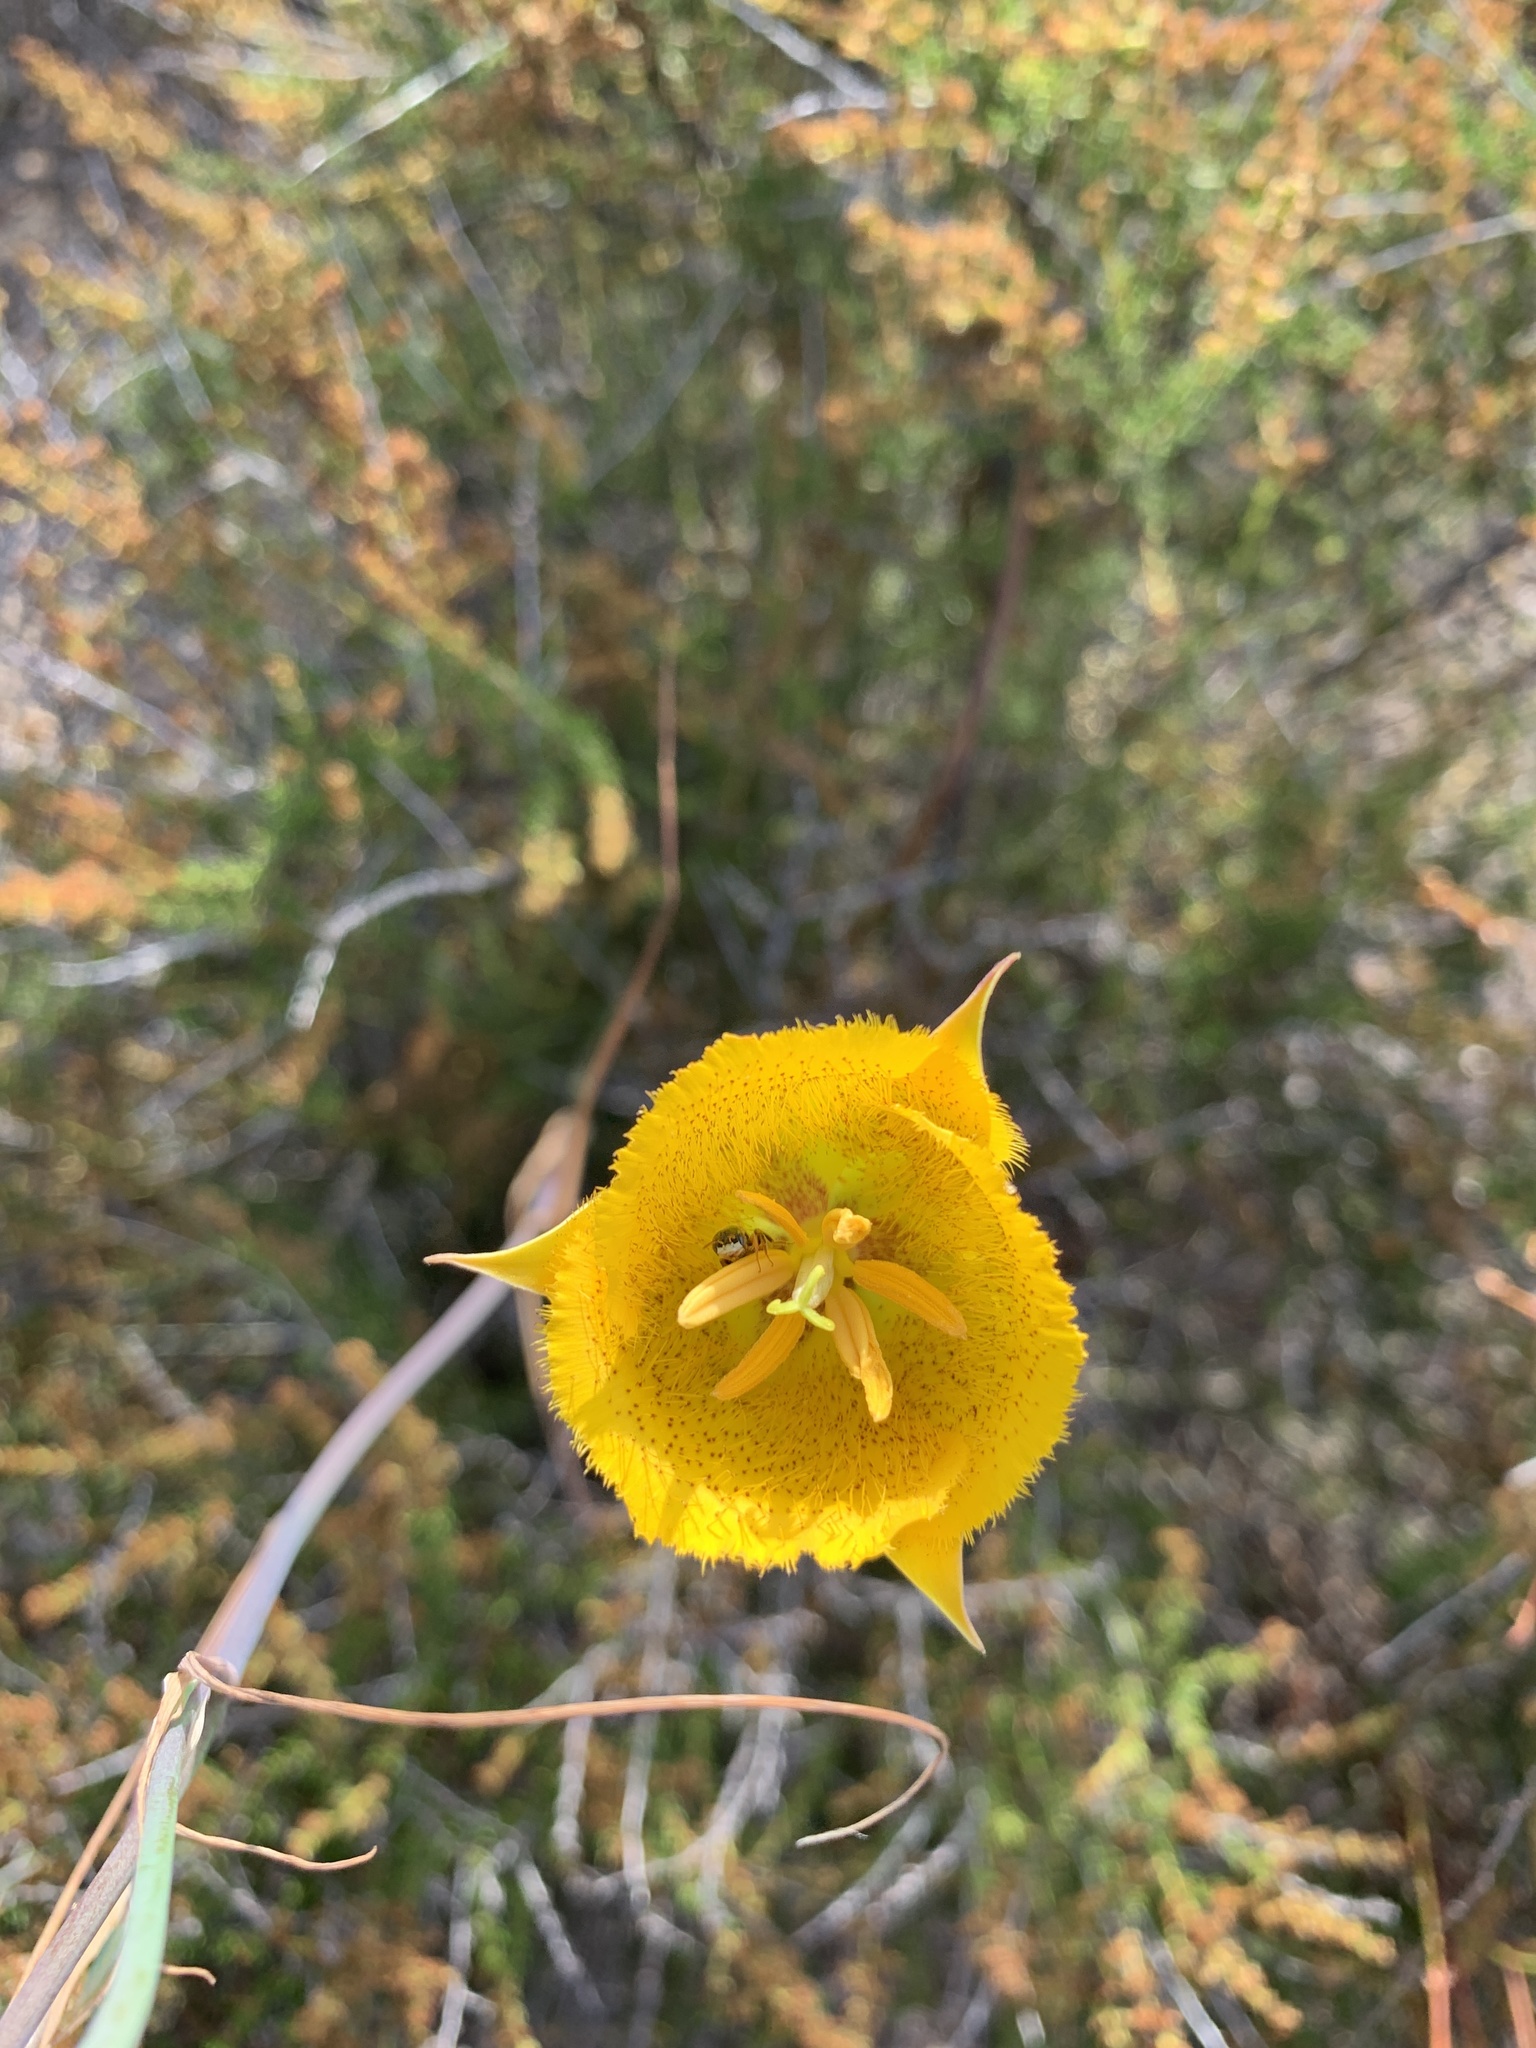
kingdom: Plantae
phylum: Tracheophyta
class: Liliopsida
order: Liliales
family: Liliaceae
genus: Calochortus
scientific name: Calochortus weedii
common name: Weed's mariposa-lily
